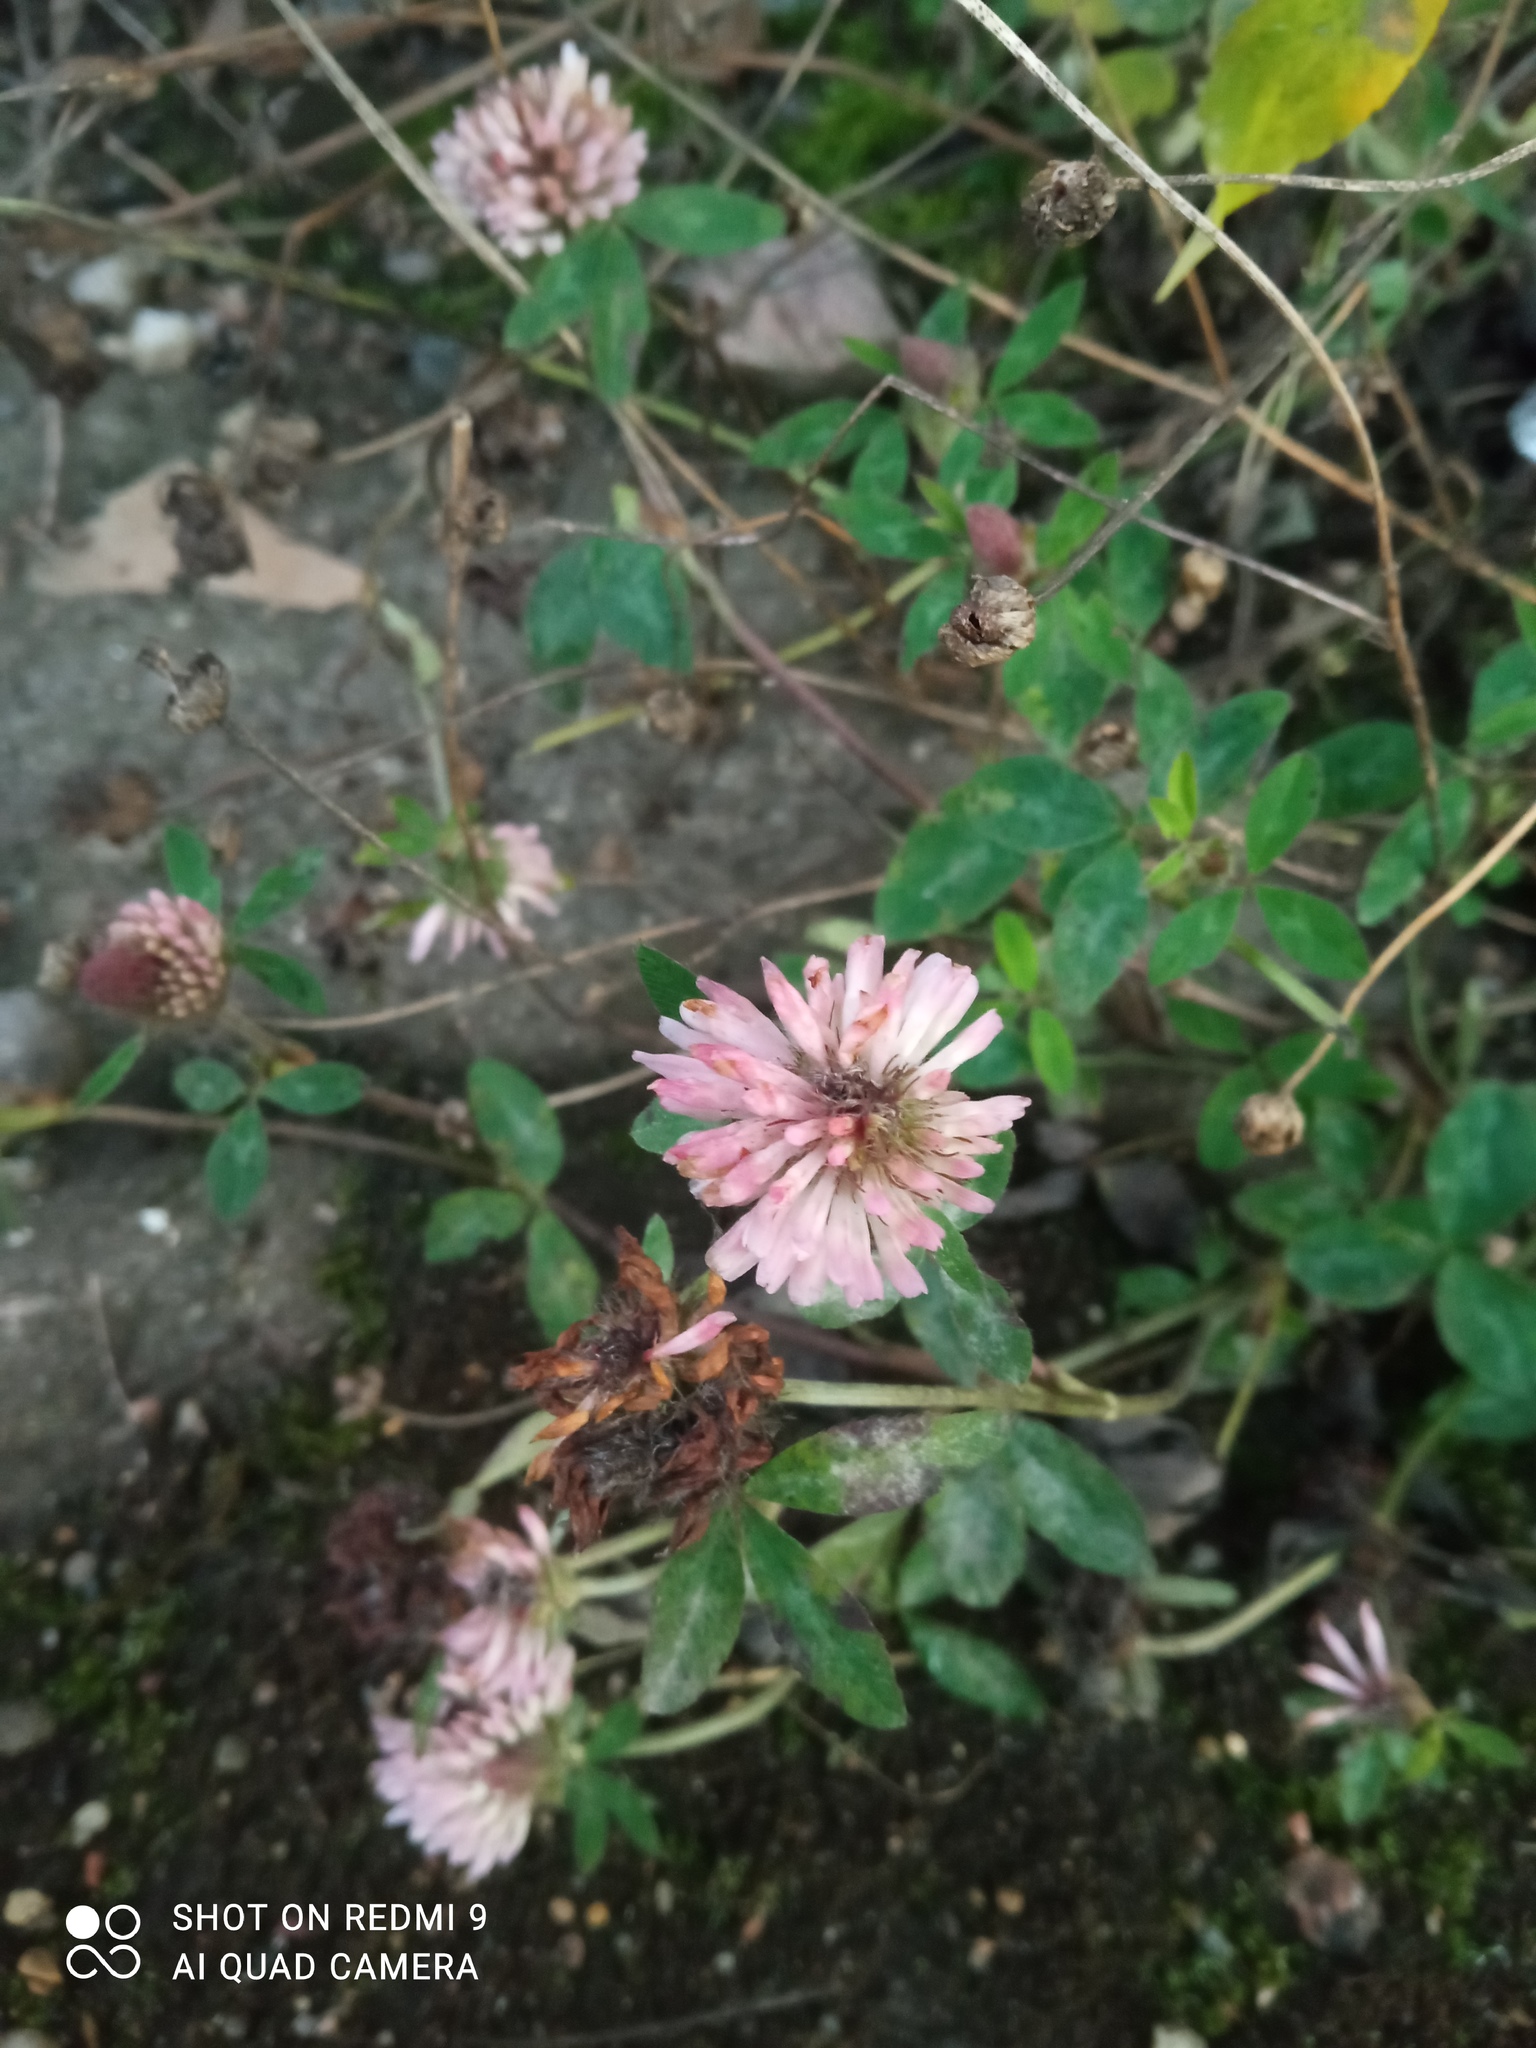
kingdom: Plantae
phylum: Tracheophyta
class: Magnoliopsida
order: Fabales
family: Fabaceae
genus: Trifolium
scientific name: Trifolium pratense
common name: Red clover
